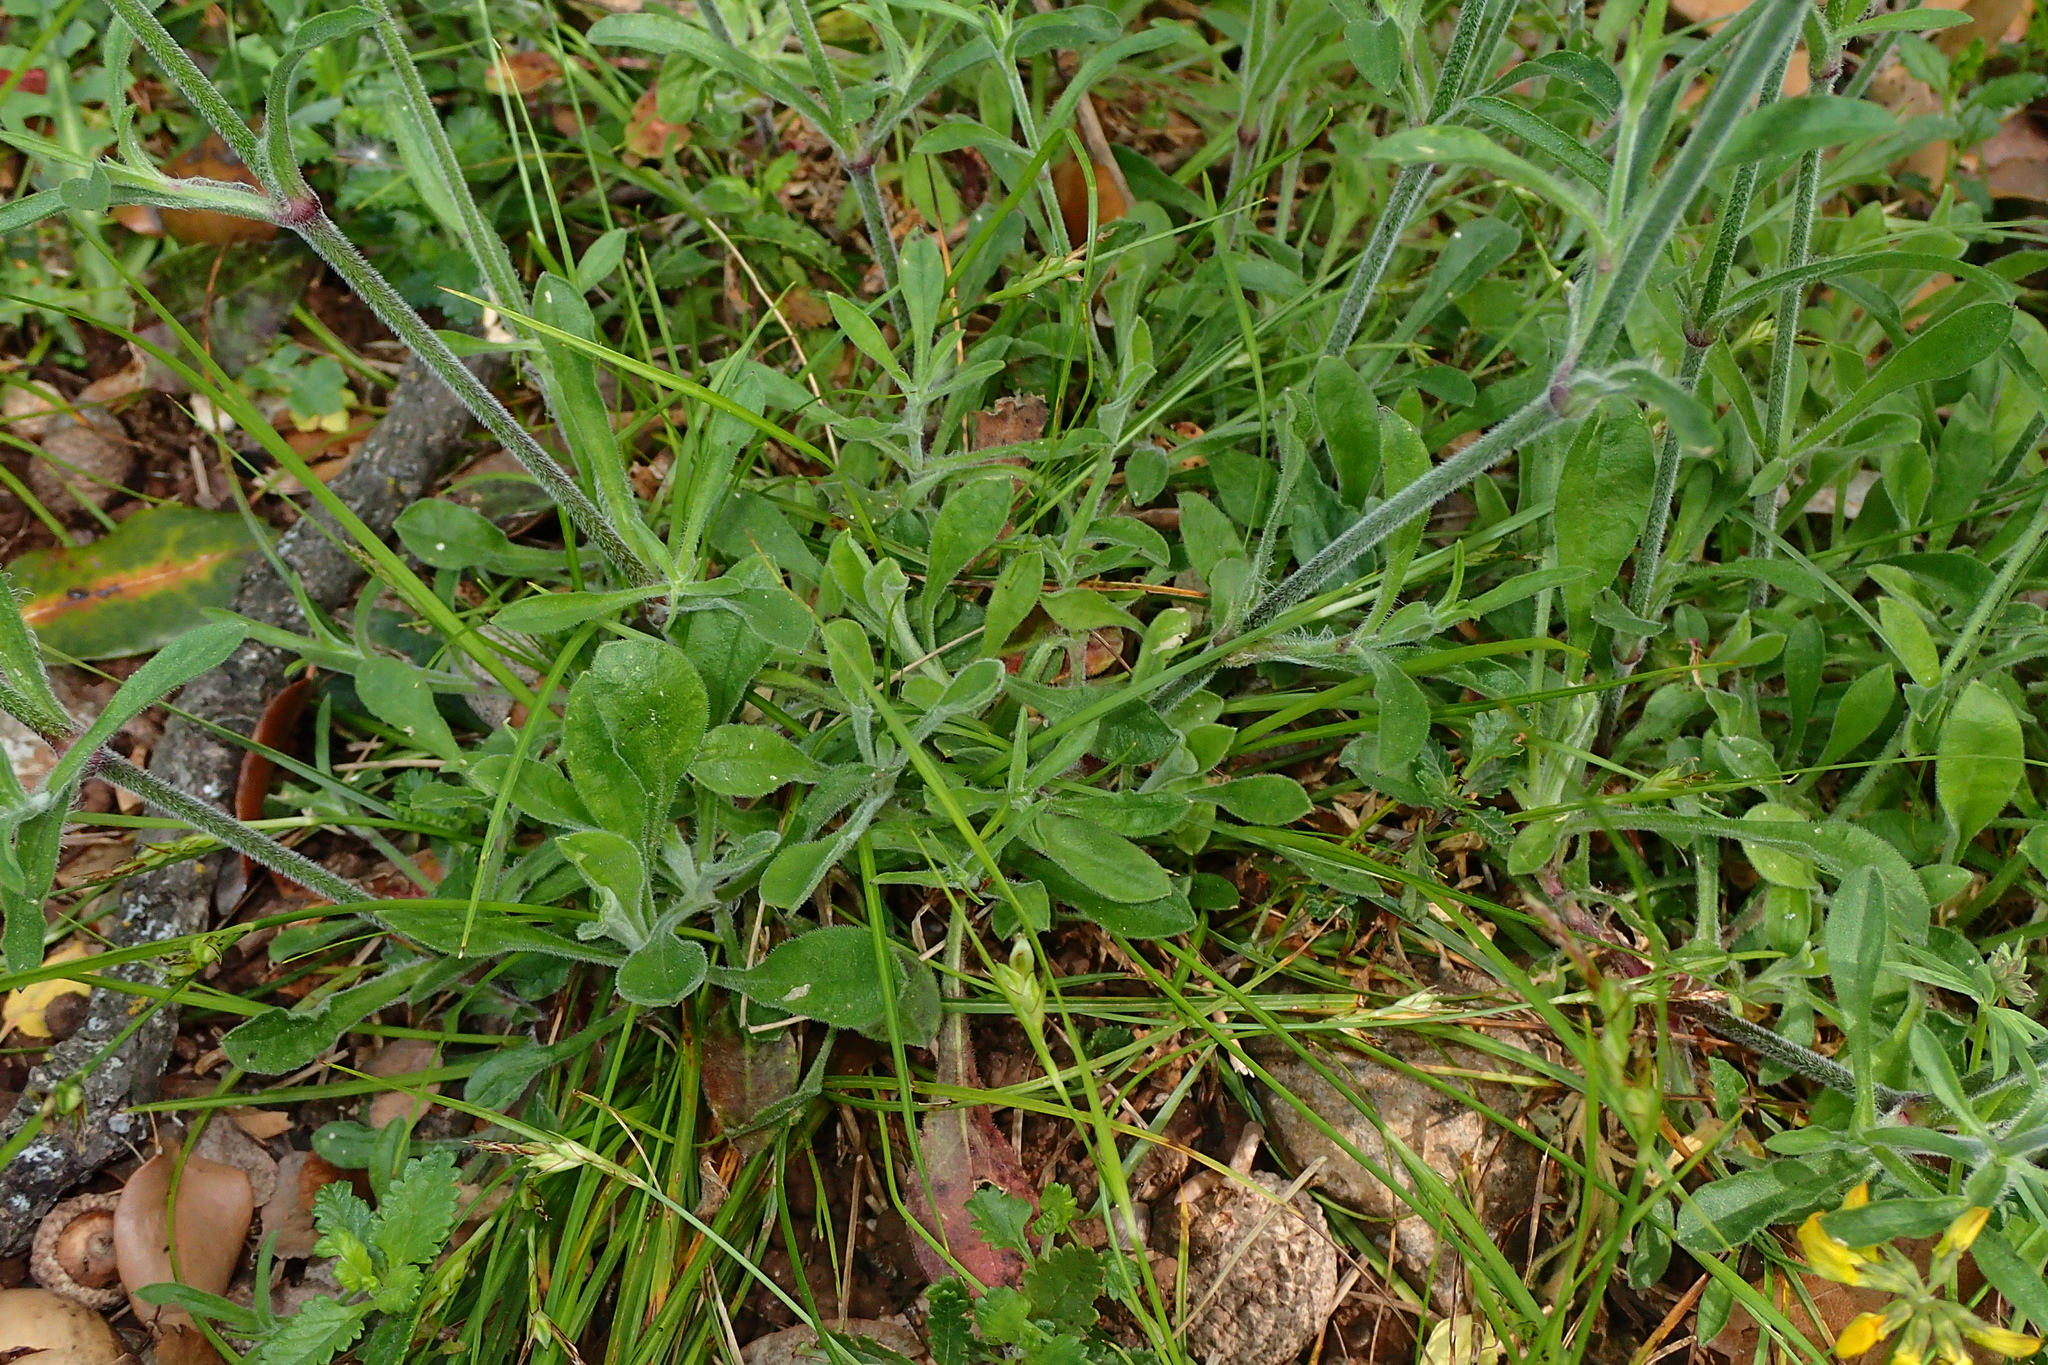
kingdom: Plantae
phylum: Tracheophyta
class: Magnoliopsida
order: Caryophyllales
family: Caryophyllaceae
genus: Silene
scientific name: Silene italica
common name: Italian catchfly
